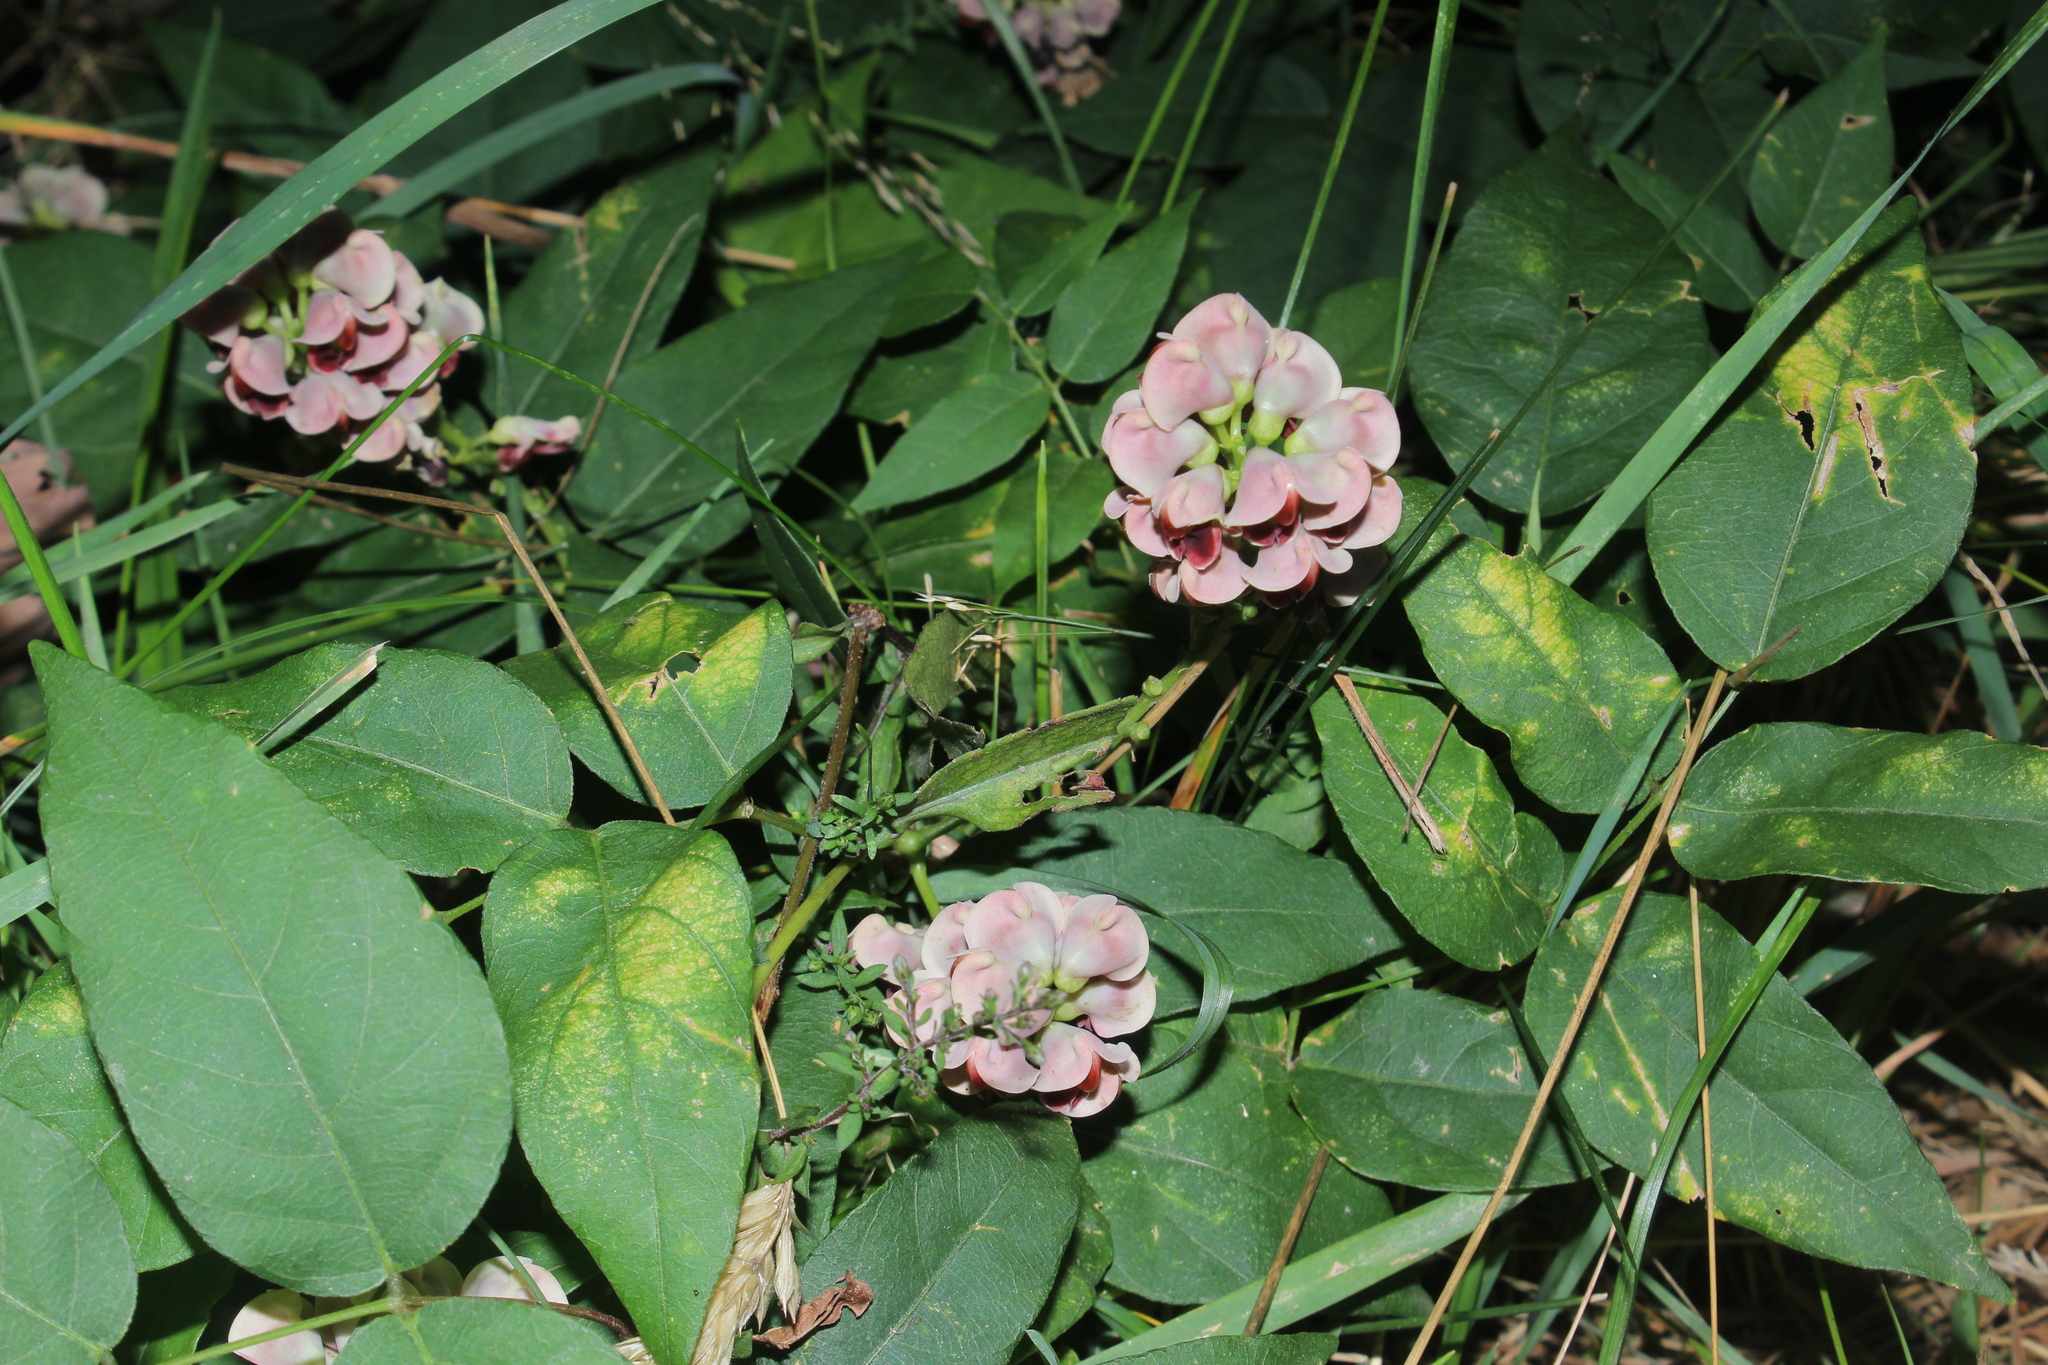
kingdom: Plantae
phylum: Tracheophyta
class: Magnoliopsida
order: Fabales
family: Fabaceae
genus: Apios
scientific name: Apios americana
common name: American potato-bean
